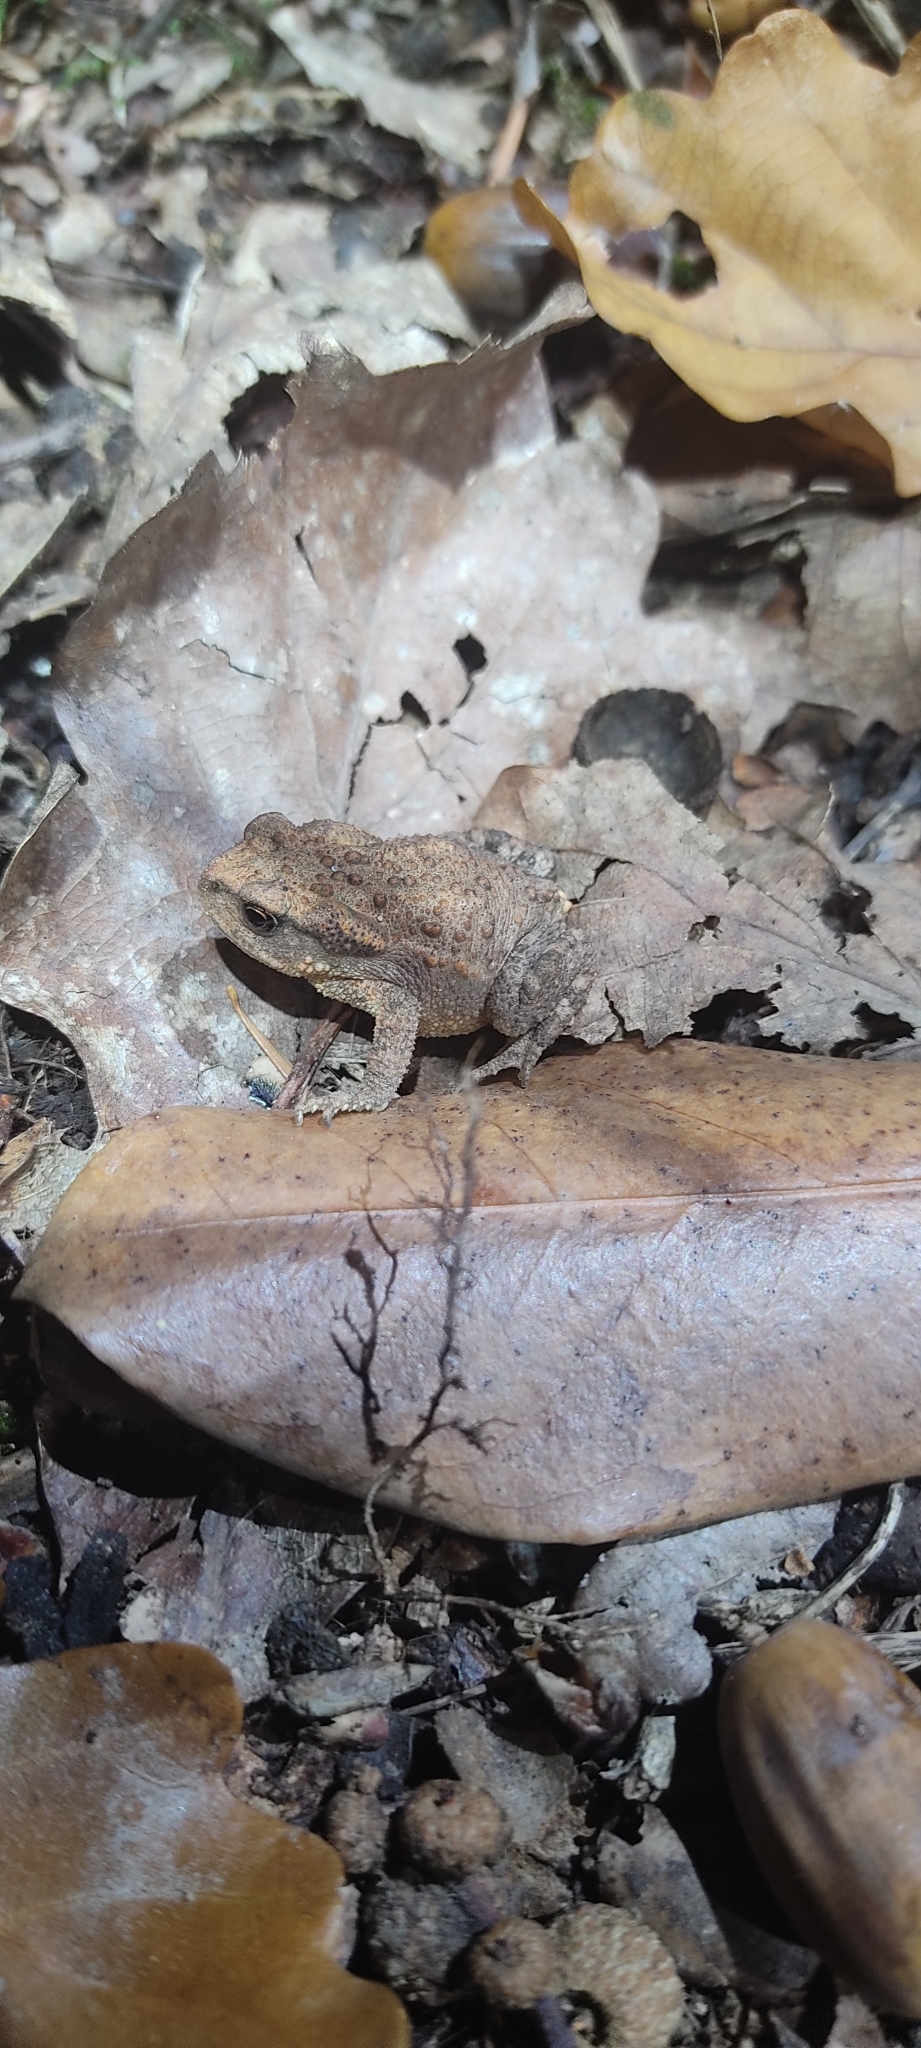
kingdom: Animalia
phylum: Chordata
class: Amphibia
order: Anura
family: Bufonidae
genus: Bufo
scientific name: Bufo spinosus
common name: Western common toad
